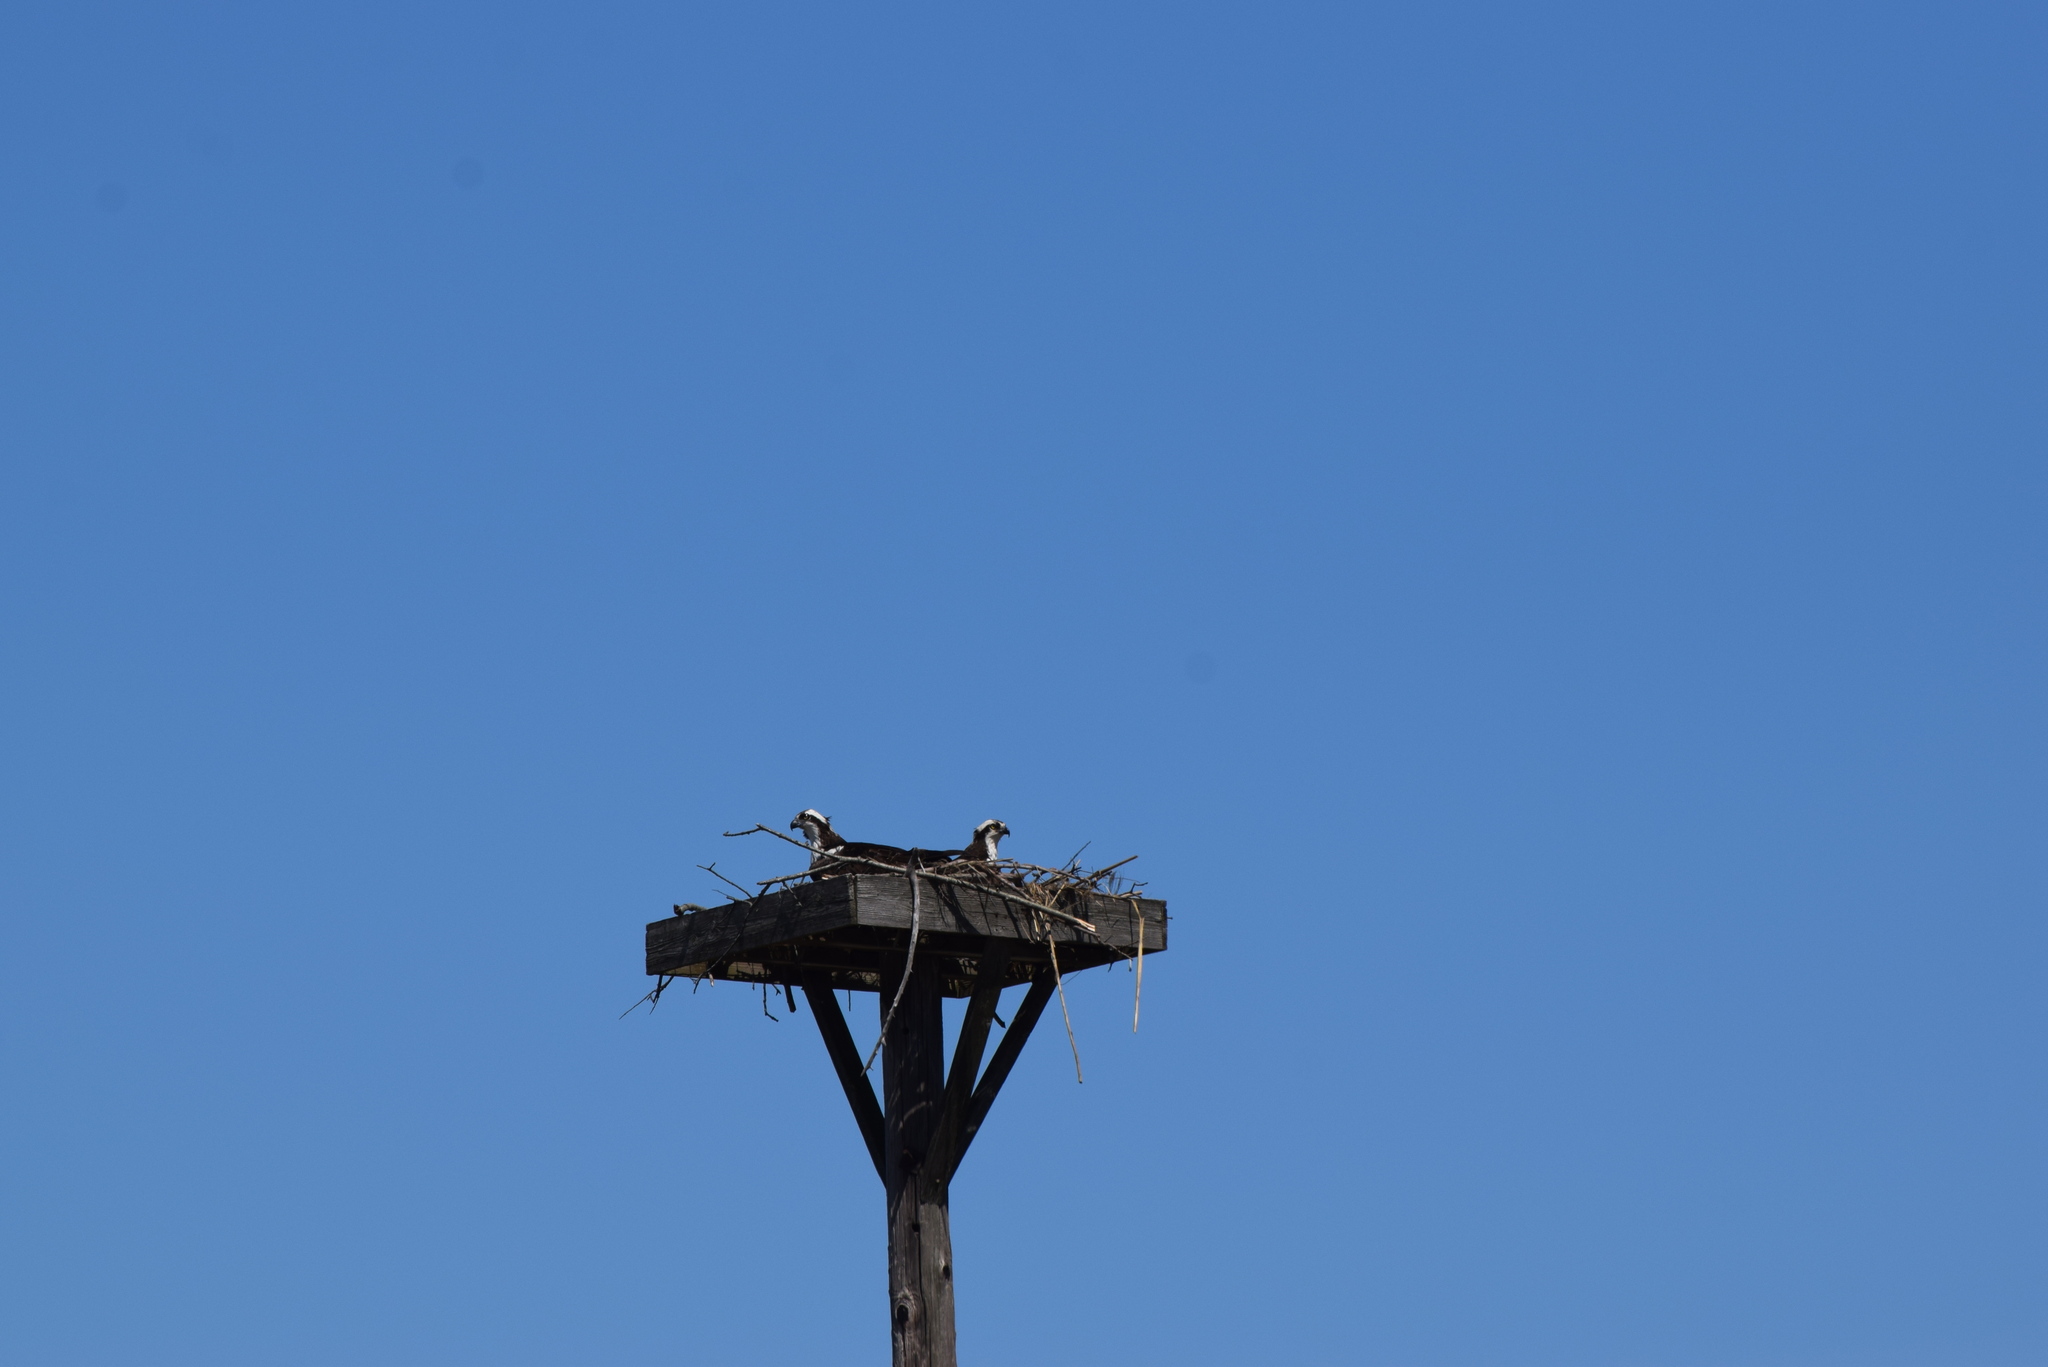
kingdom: Animalia
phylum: Chordata
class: Aves
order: Accipitriformes
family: Pandionidae
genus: Pandion
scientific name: Pandion haliaetus
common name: Osprey
